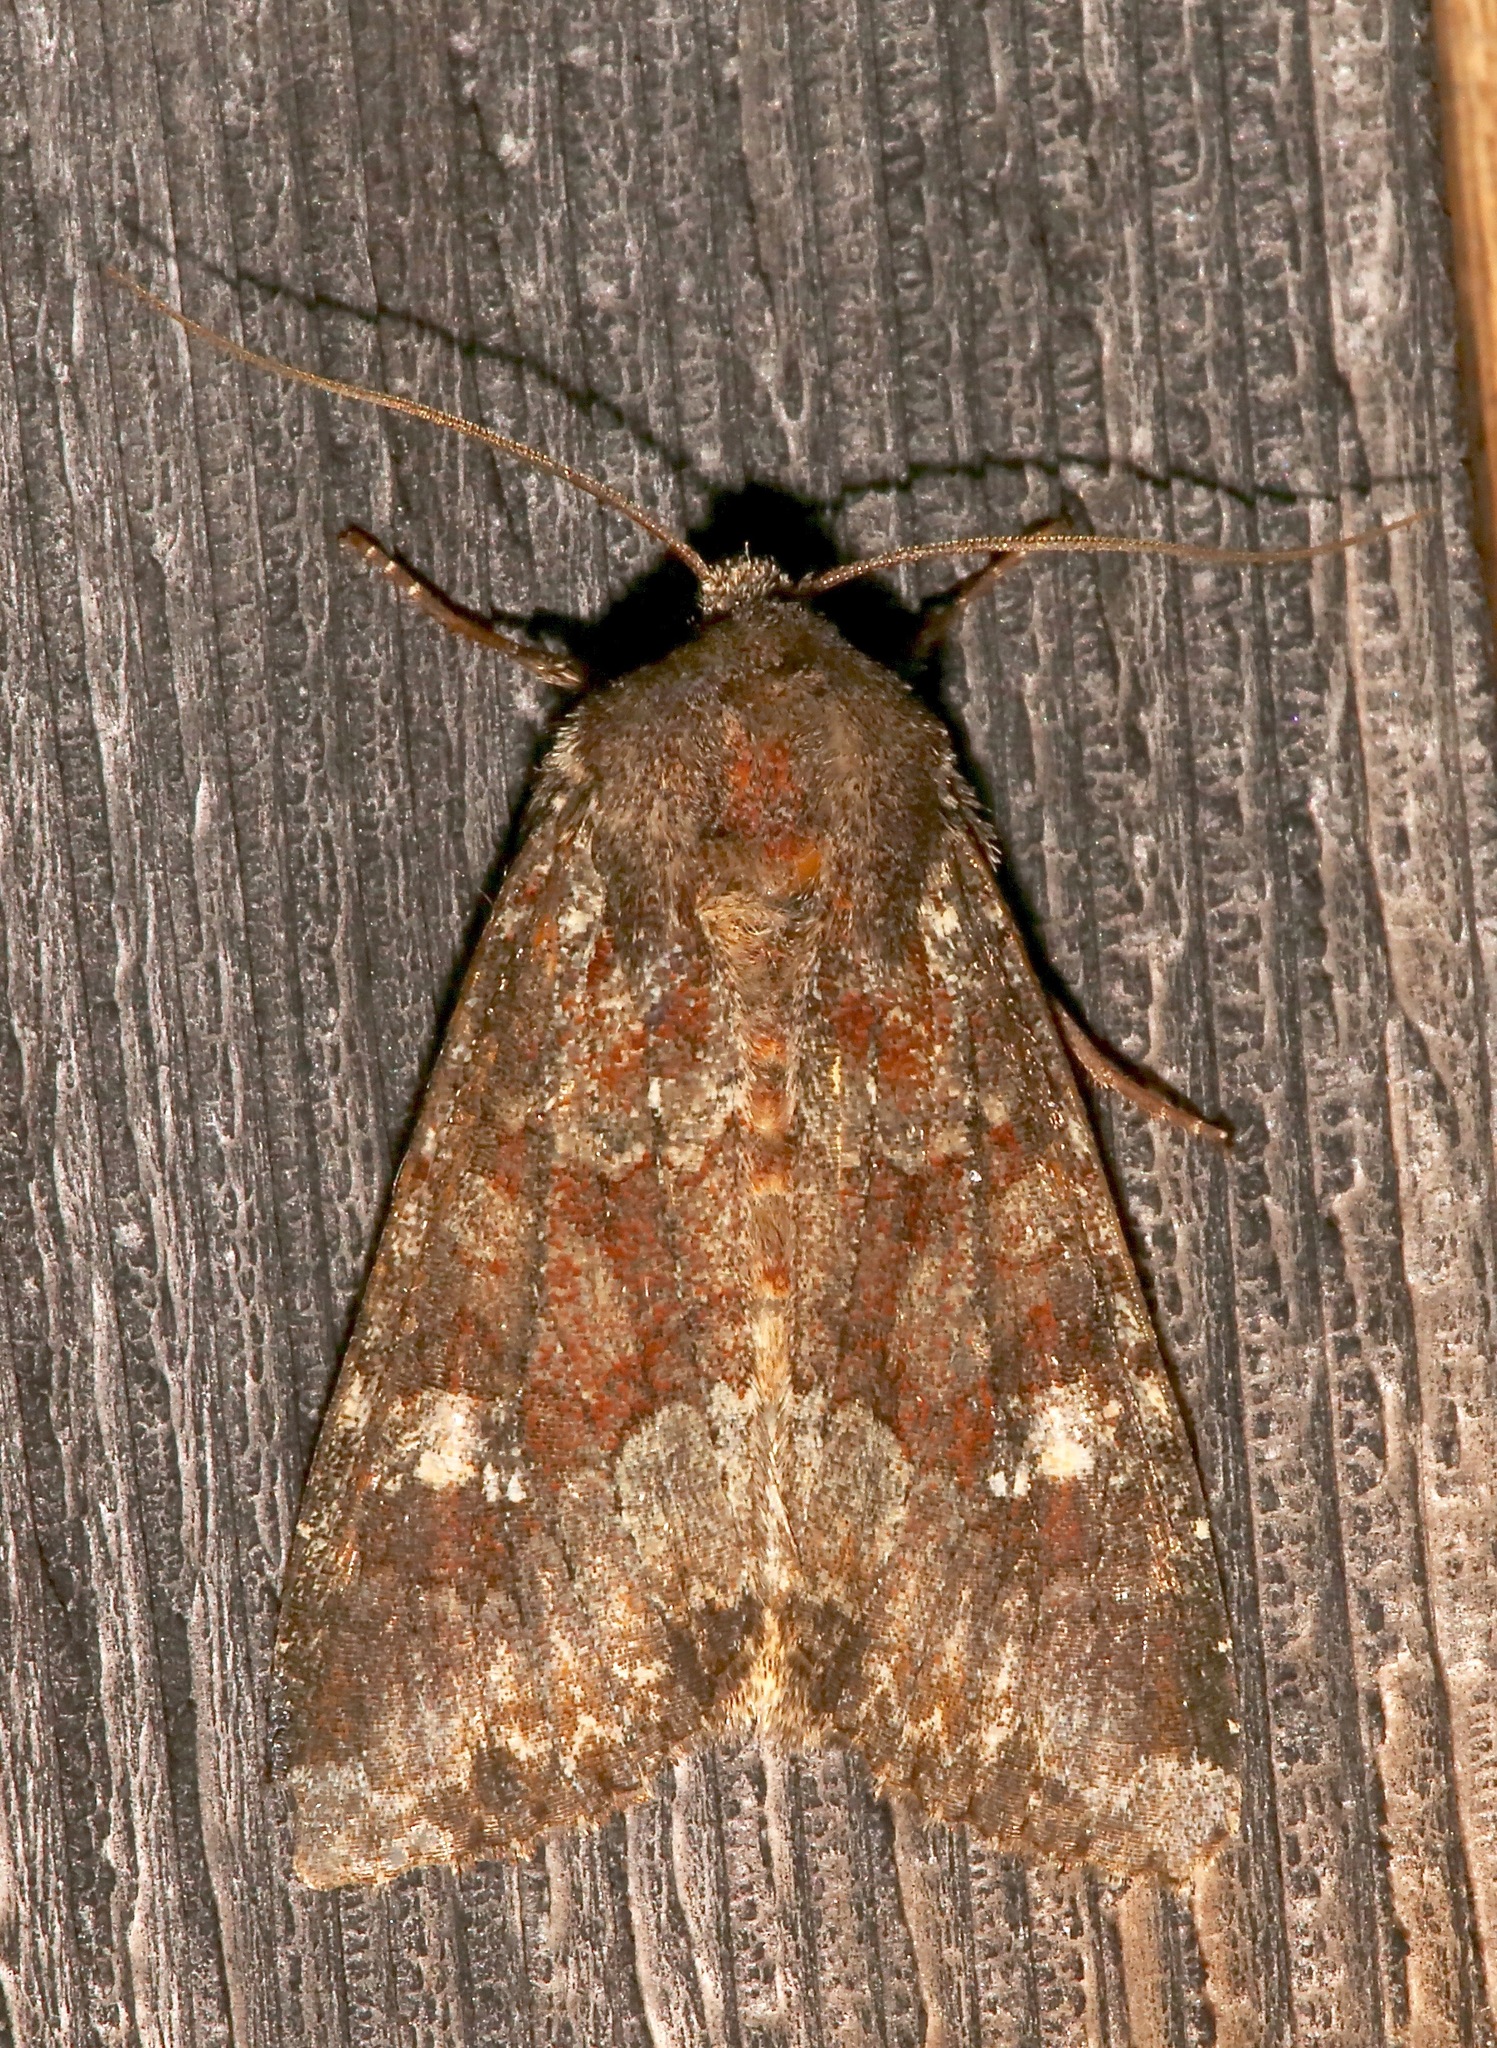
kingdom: Animalia
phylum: Arthropoda
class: Insecta
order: Lepidoptera
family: Noctuidae
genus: Apamea
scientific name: Apamea amputatrix
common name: Yellow-headed cutworm moth
